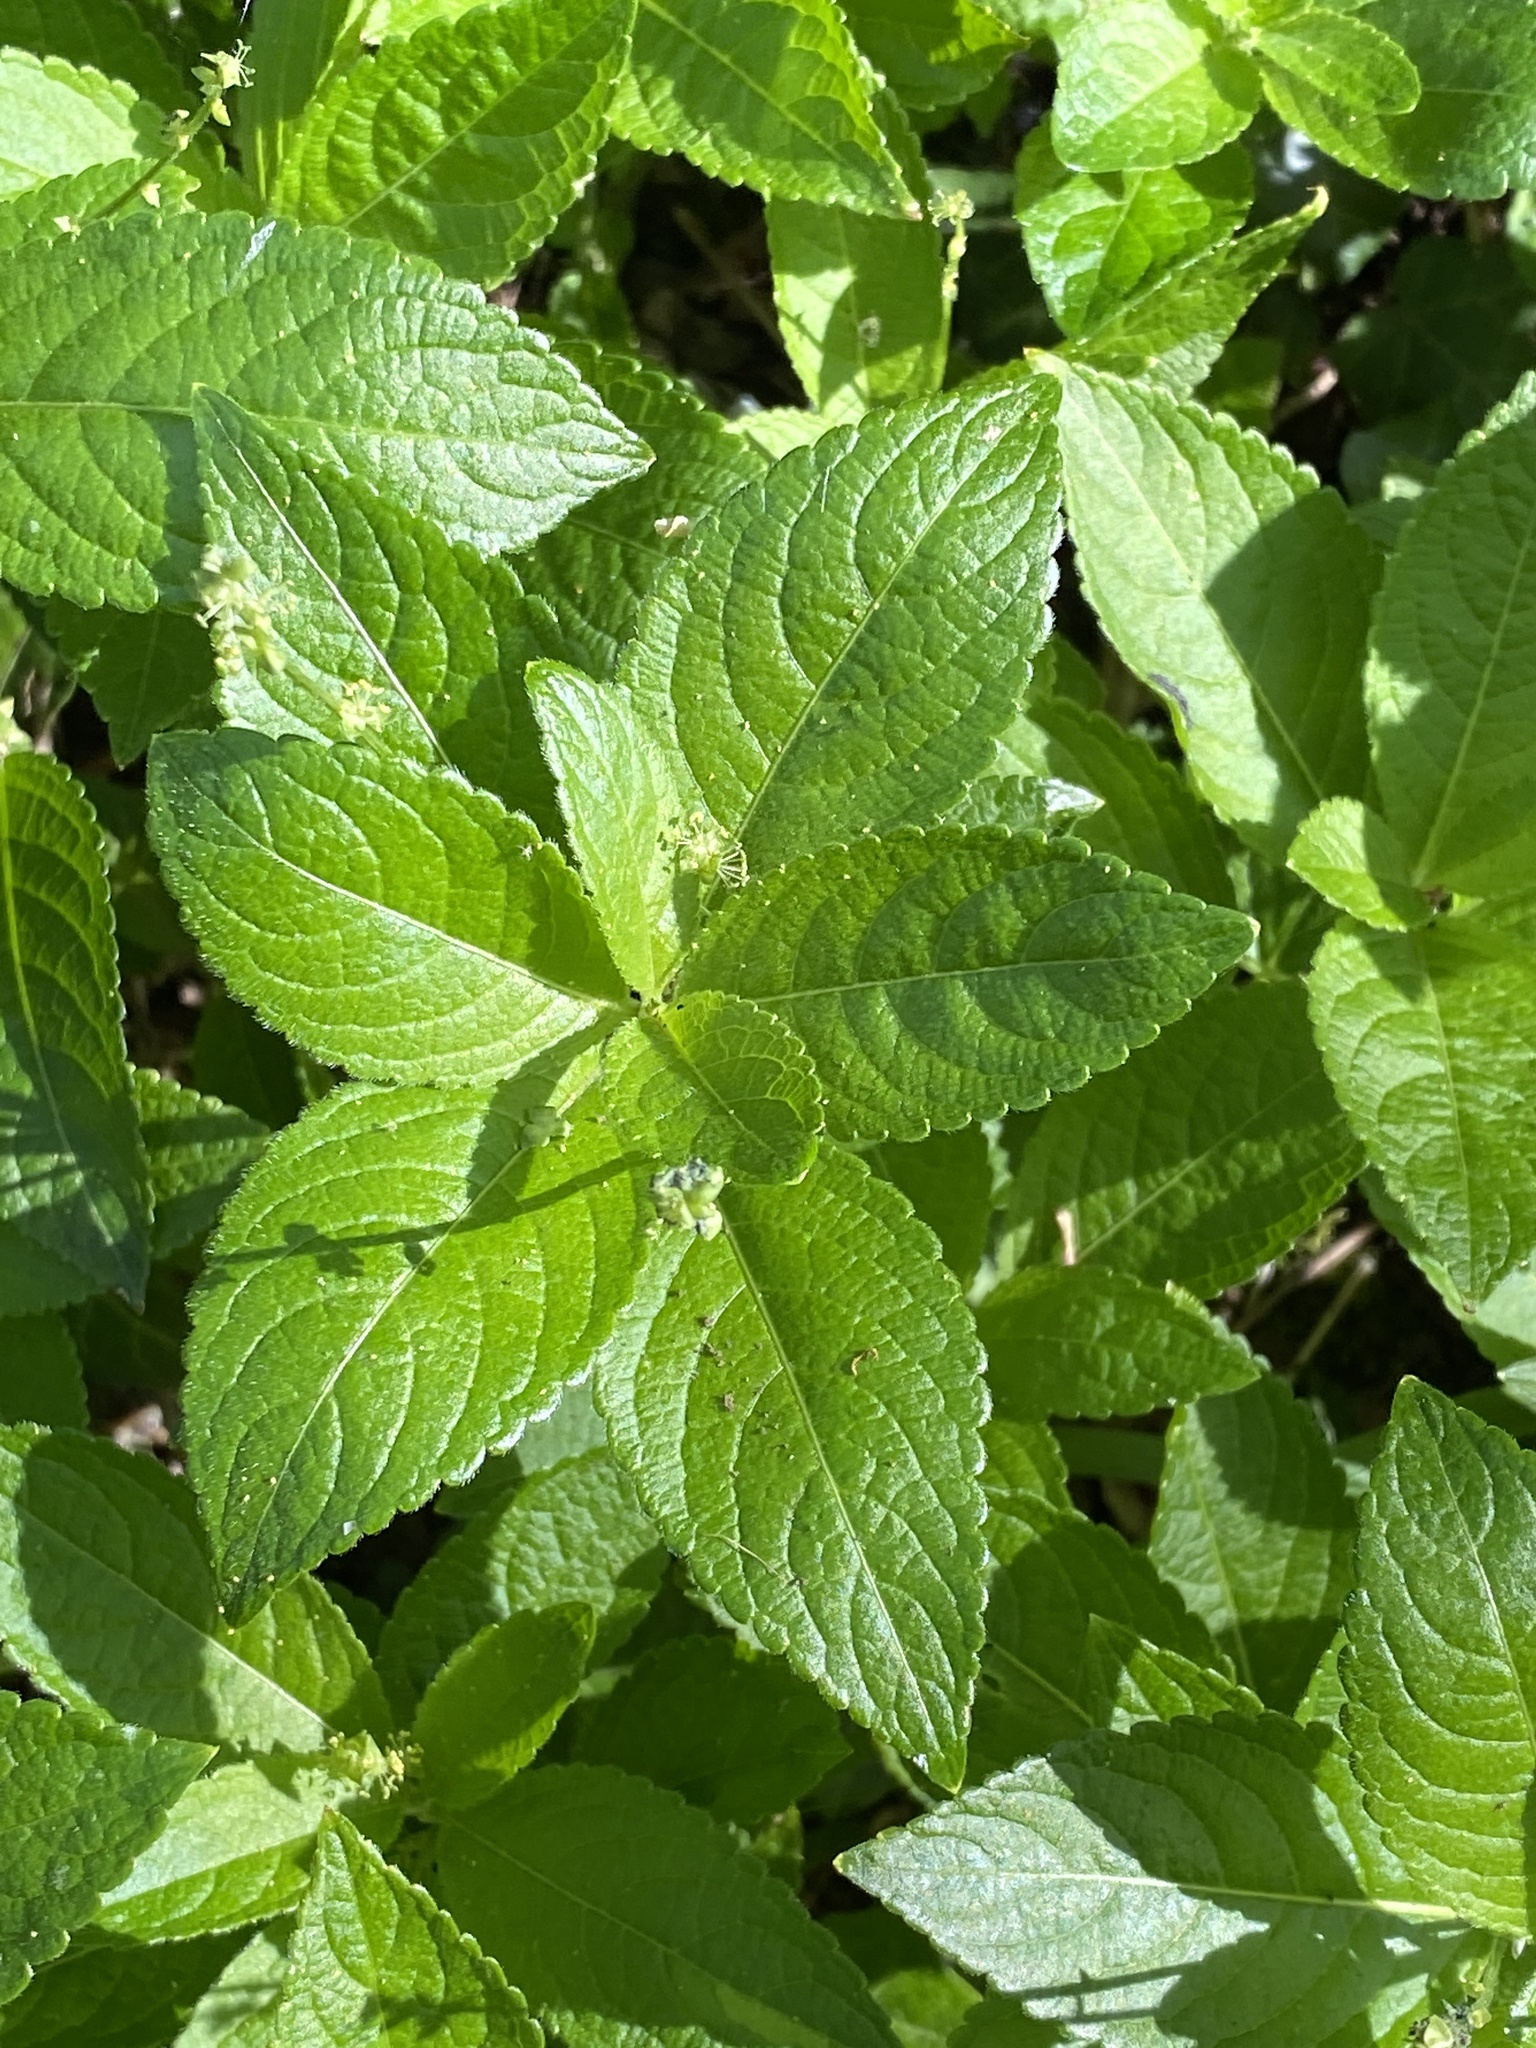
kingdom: Plantae
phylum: Tracheophyta
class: Magnoliopsida
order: Malpighiales
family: Euphorbiaceae
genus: Mercurialis
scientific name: Mercurialis perennis
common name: Dog mercury
